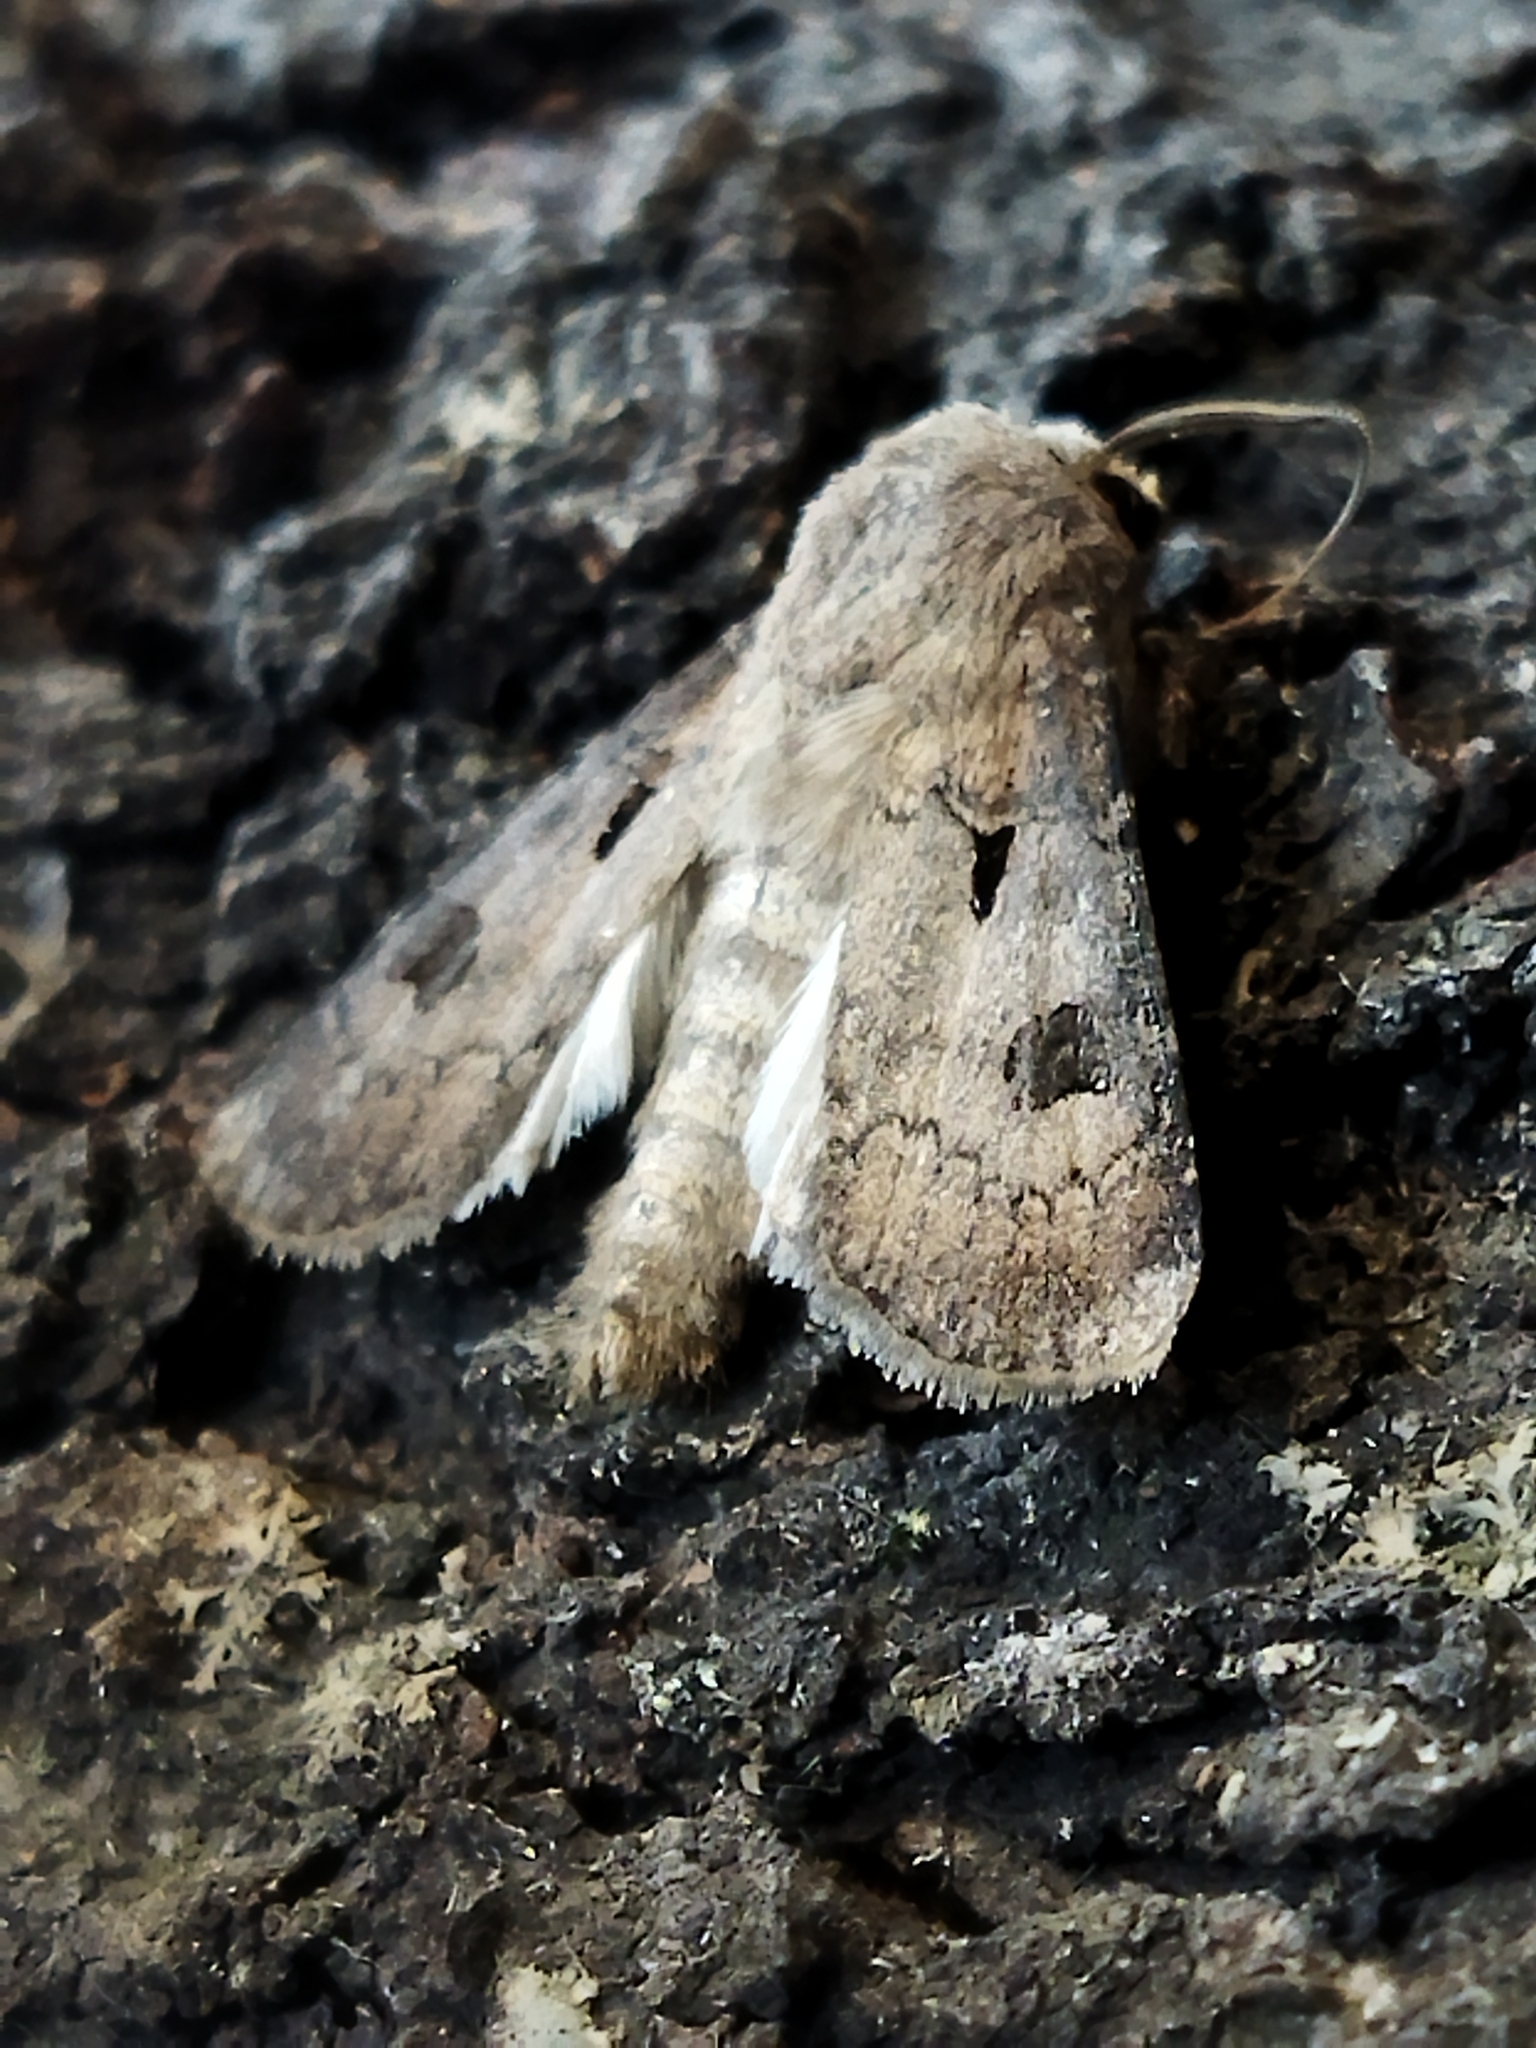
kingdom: Animalia
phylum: Arthropoda
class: Insecta
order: Lepidoptera
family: Noctuidae
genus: Agrotis
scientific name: Agrotis exclamationis
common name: Heart and dart
